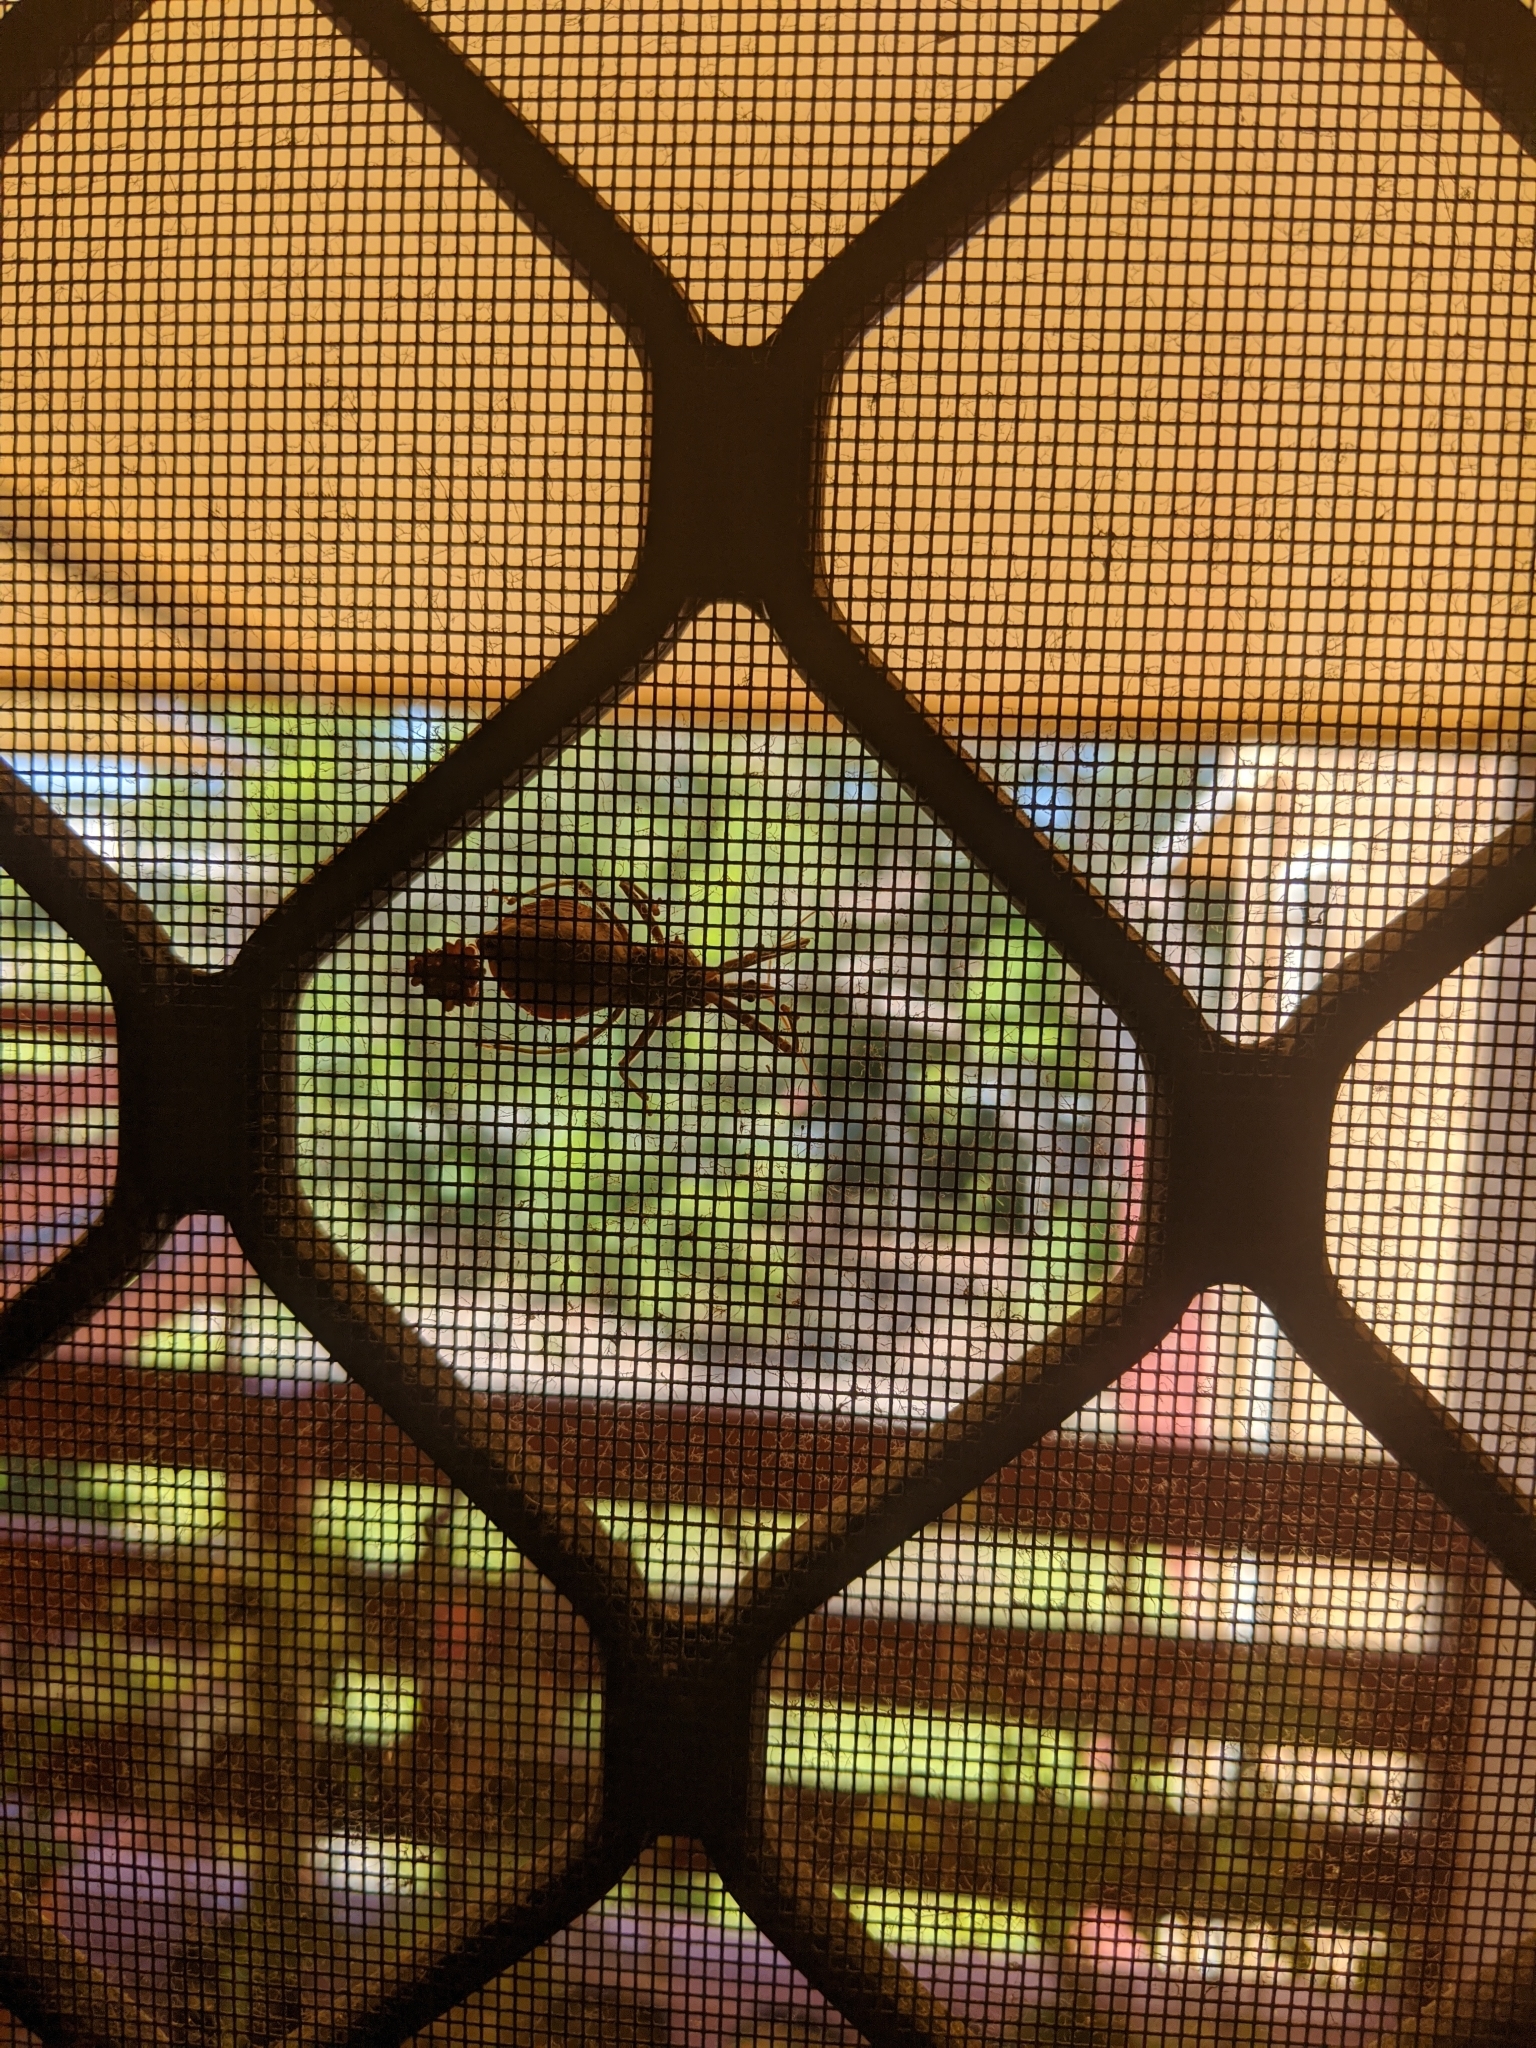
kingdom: Animalia
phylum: Arthropoda
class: Insecta
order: Hemiptera
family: Reduviidae
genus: Pristhesancus
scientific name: Pristhesancus plagipennis
